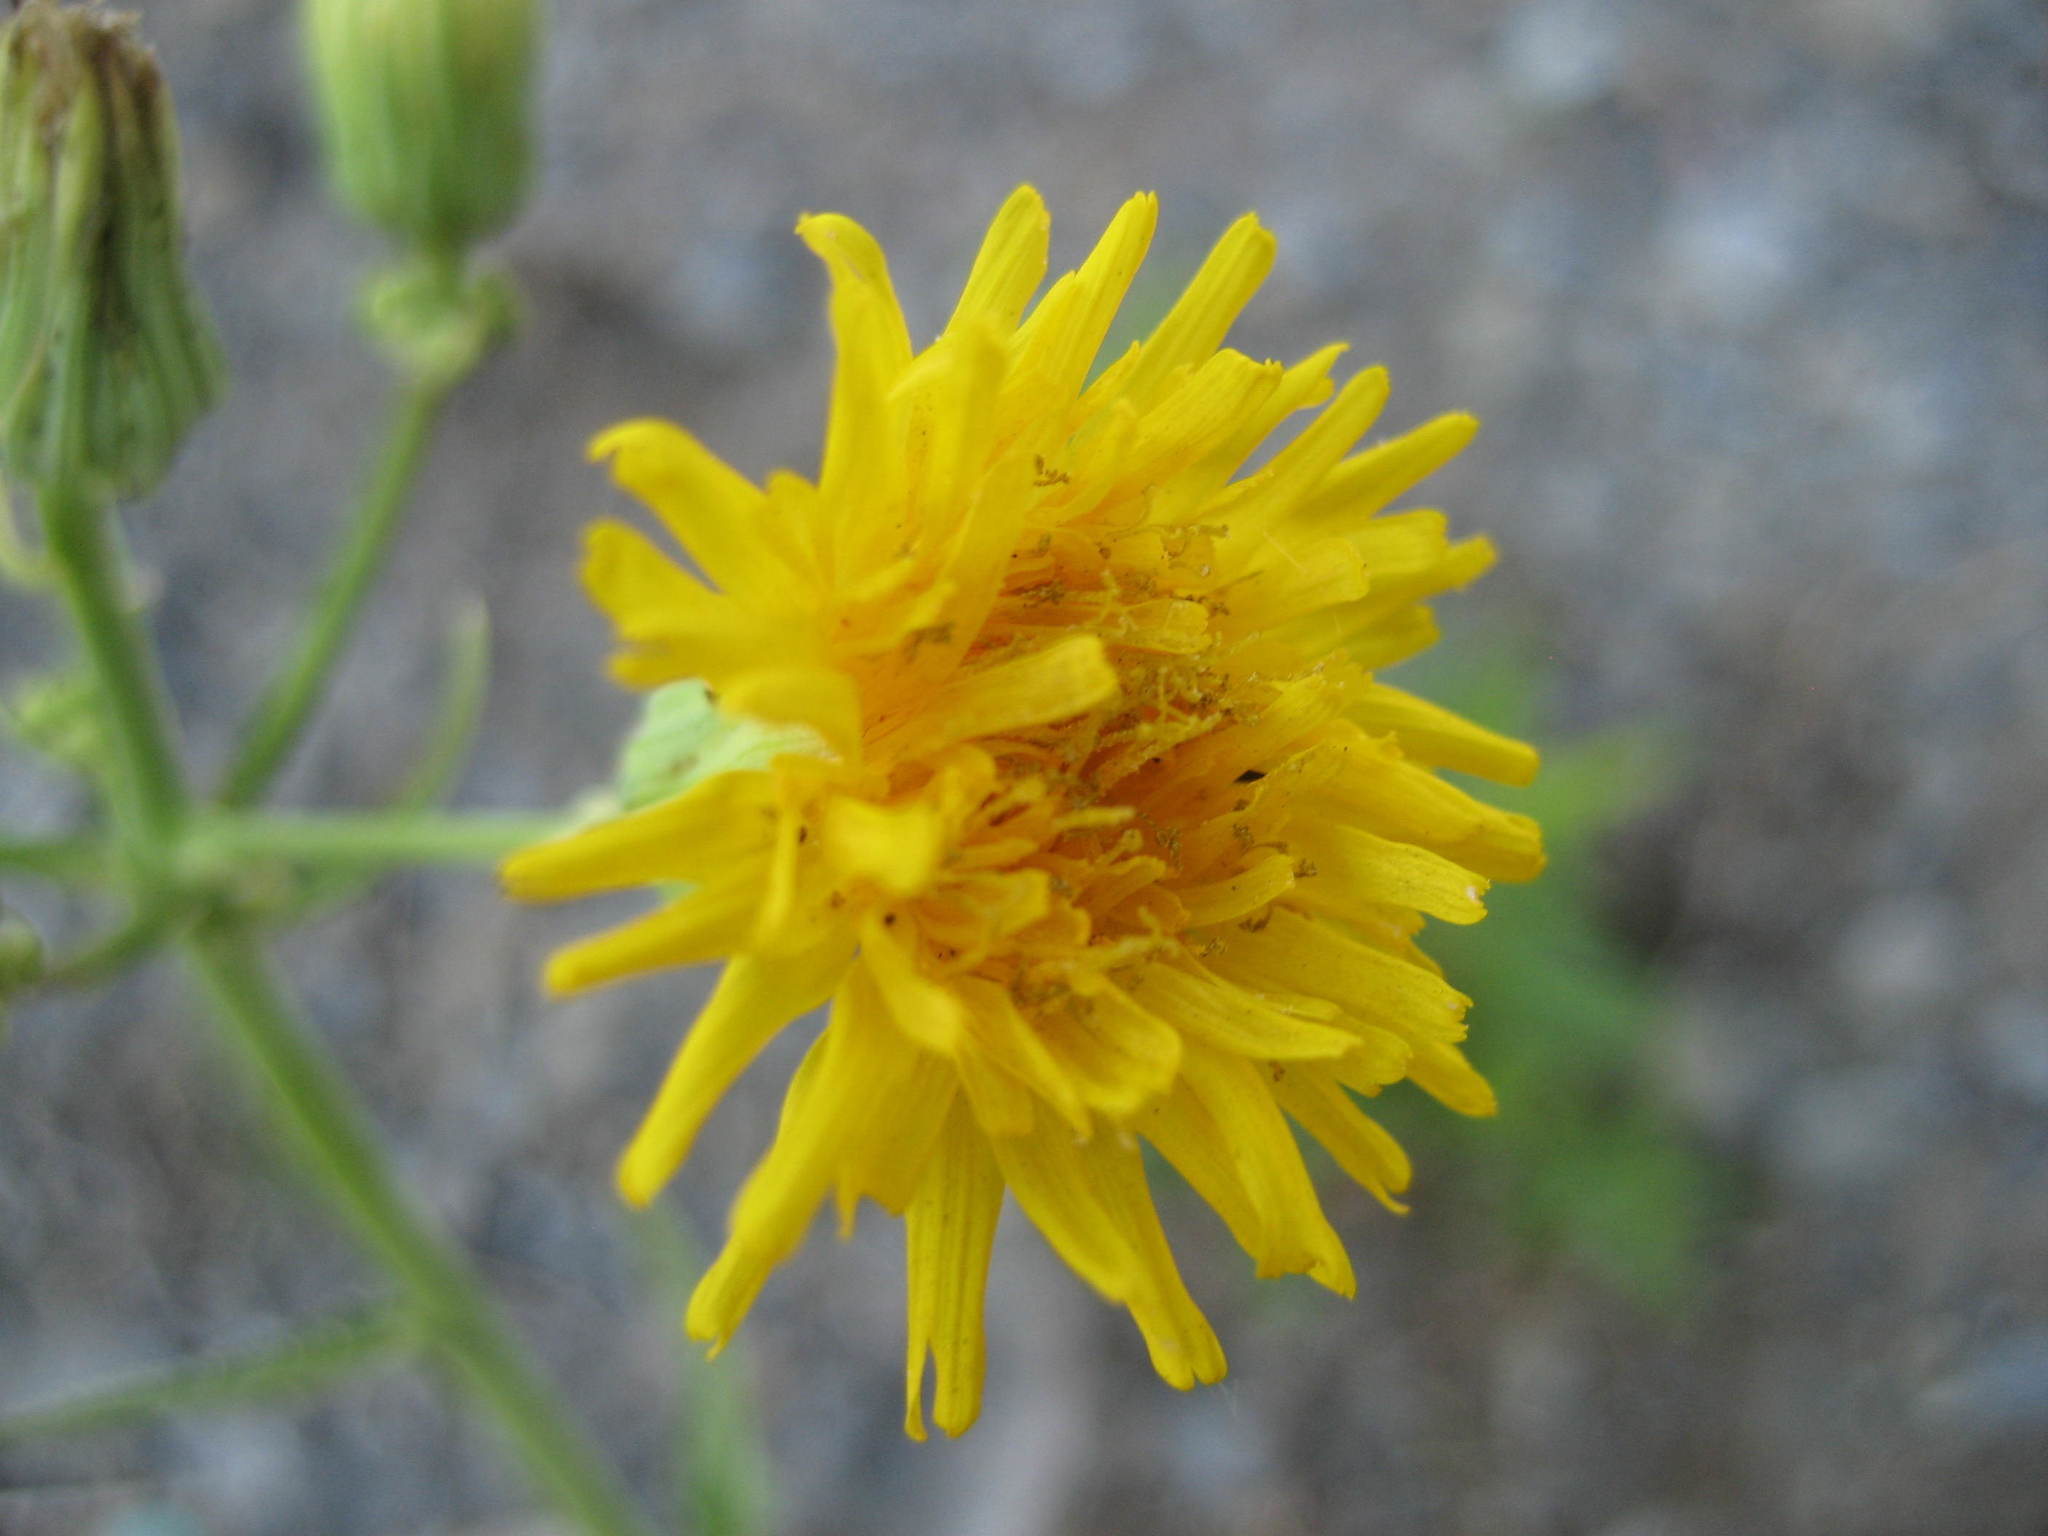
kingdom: Plantae
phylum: Tracheophyta
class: Magnoliopsida
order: Asterales
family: Asteraceae
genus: Sonchus
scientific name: Sonchus asper
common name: Prickly sow-thistle
